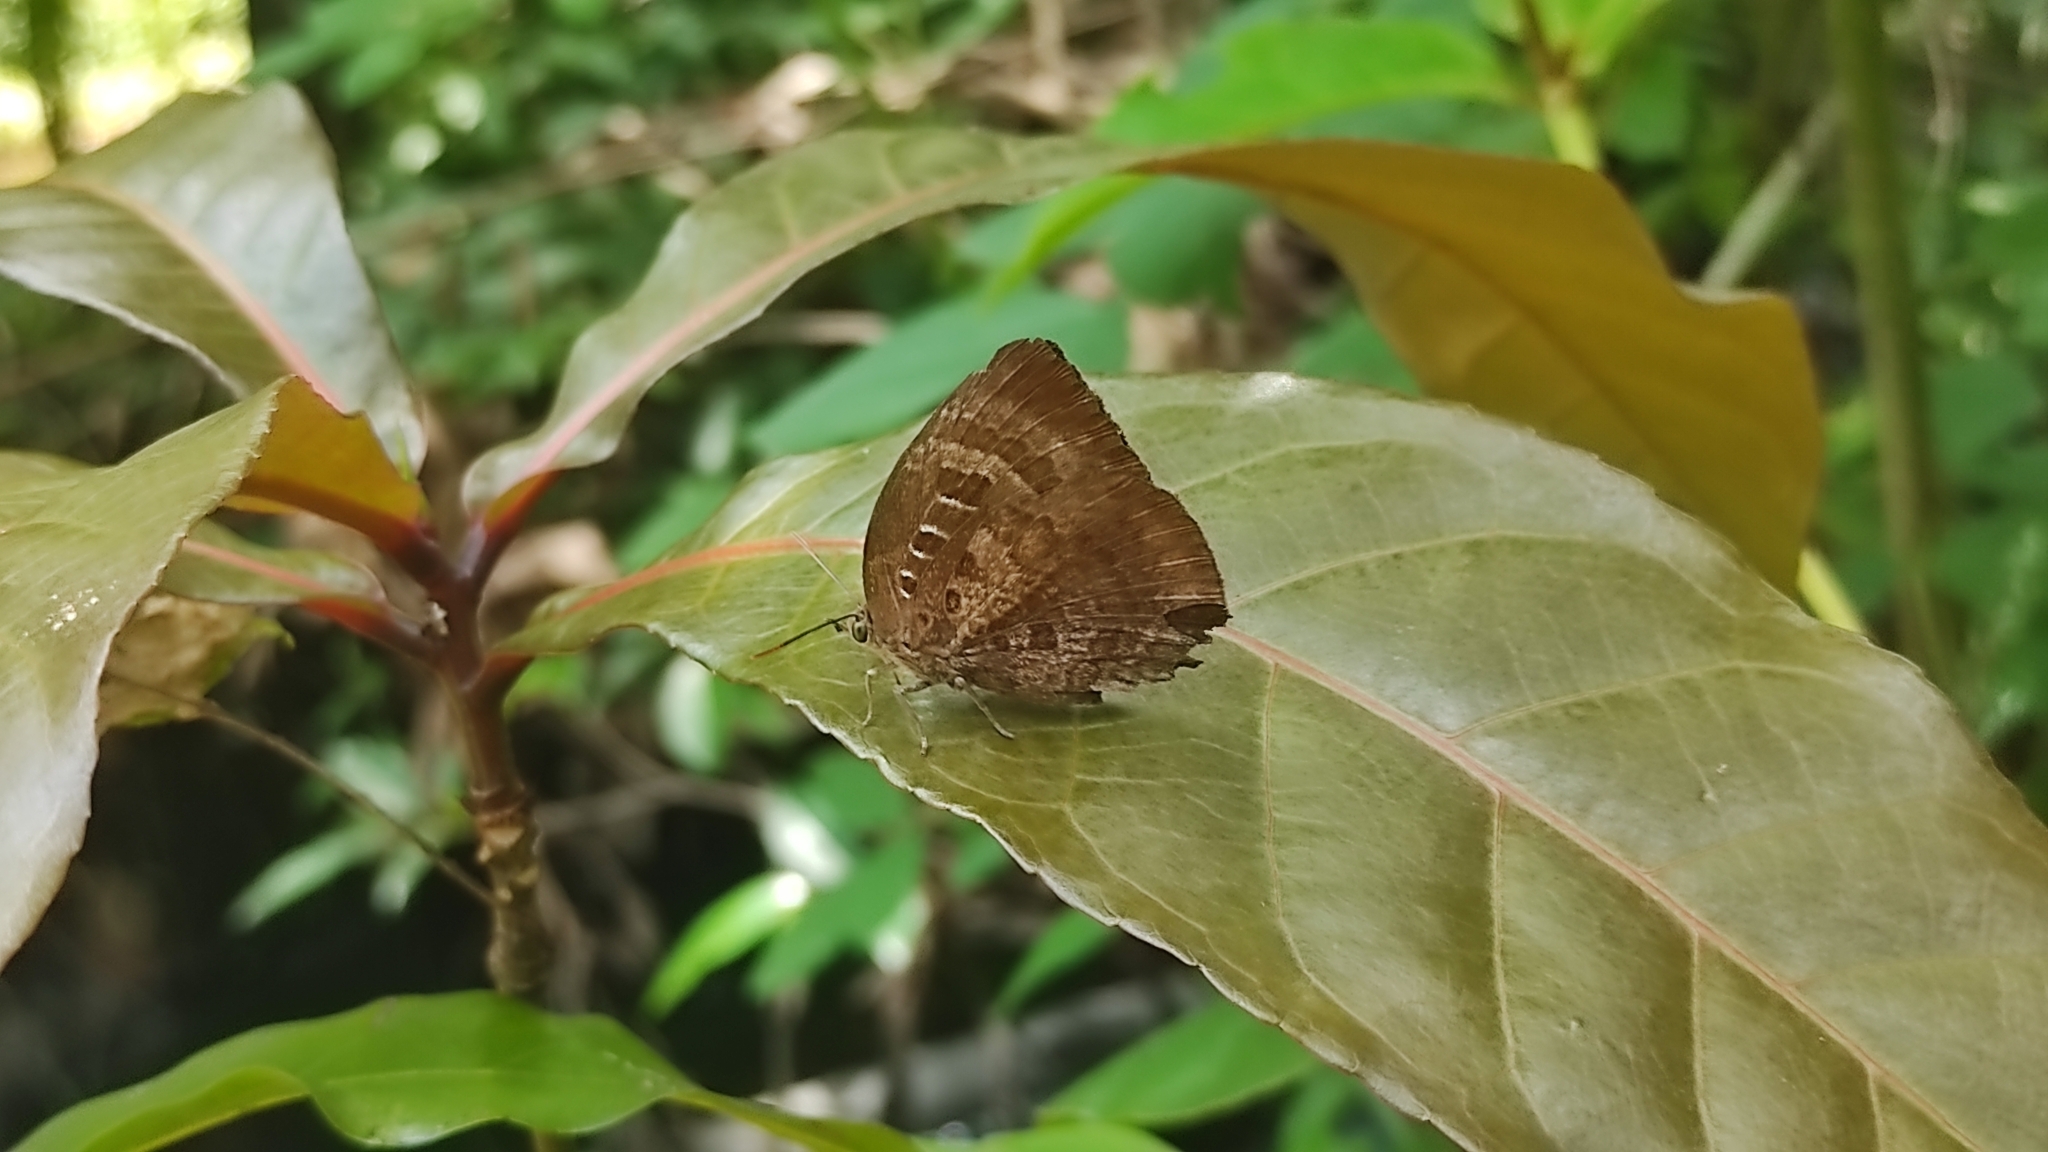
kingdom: Animalia
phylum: Arthropoda
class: Insecta
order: Lepidoptera
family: Lycaenidae
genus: Arhopala
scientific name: Arhopala centaurus
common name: Dull oak-blue
